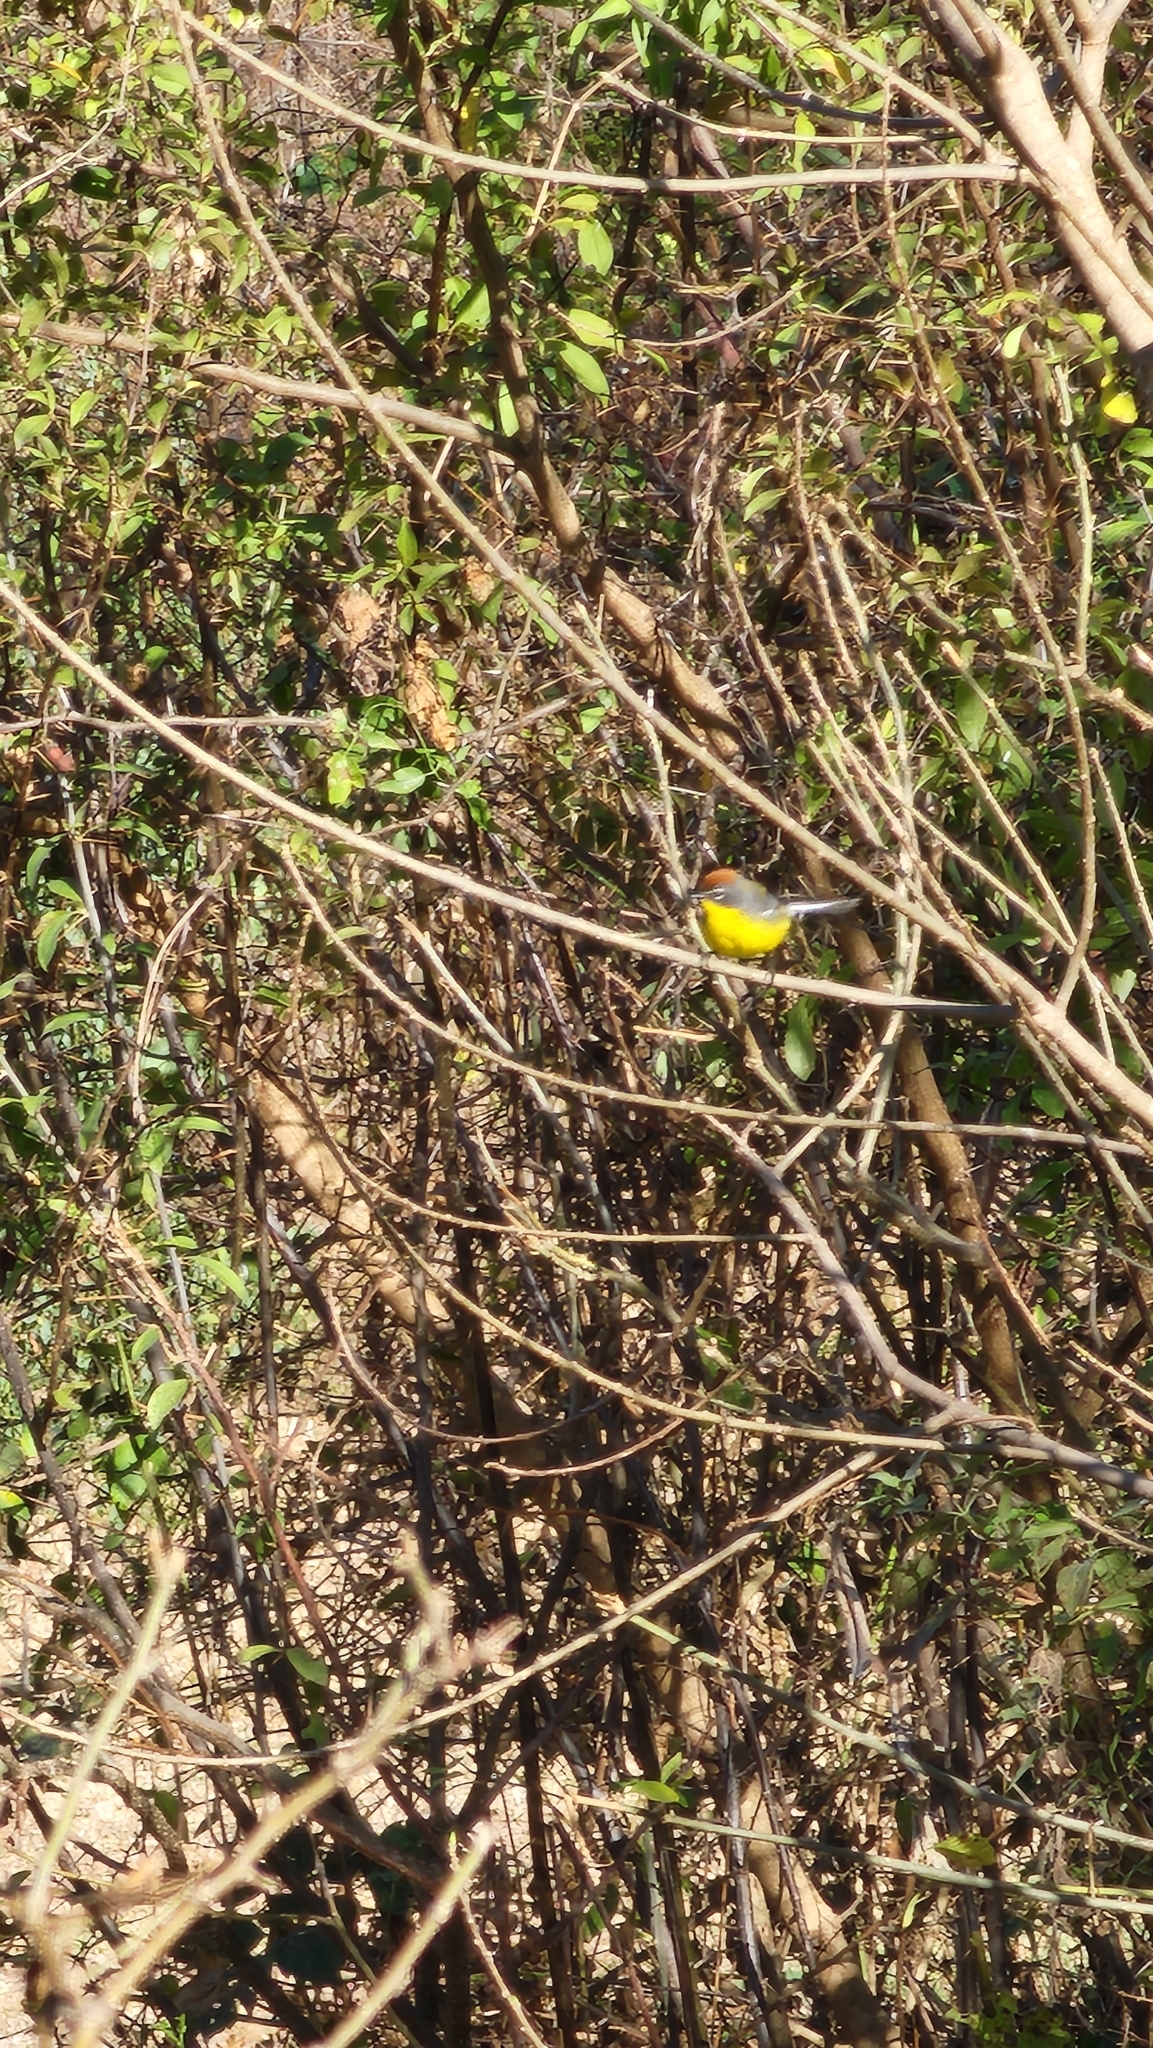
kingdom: Animalia
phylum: Chordata
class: Aves
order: Passeriformes
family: Parulidae
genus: Myioborus
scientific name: Myioborus brunniceps
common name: Brown-capped whitestart
